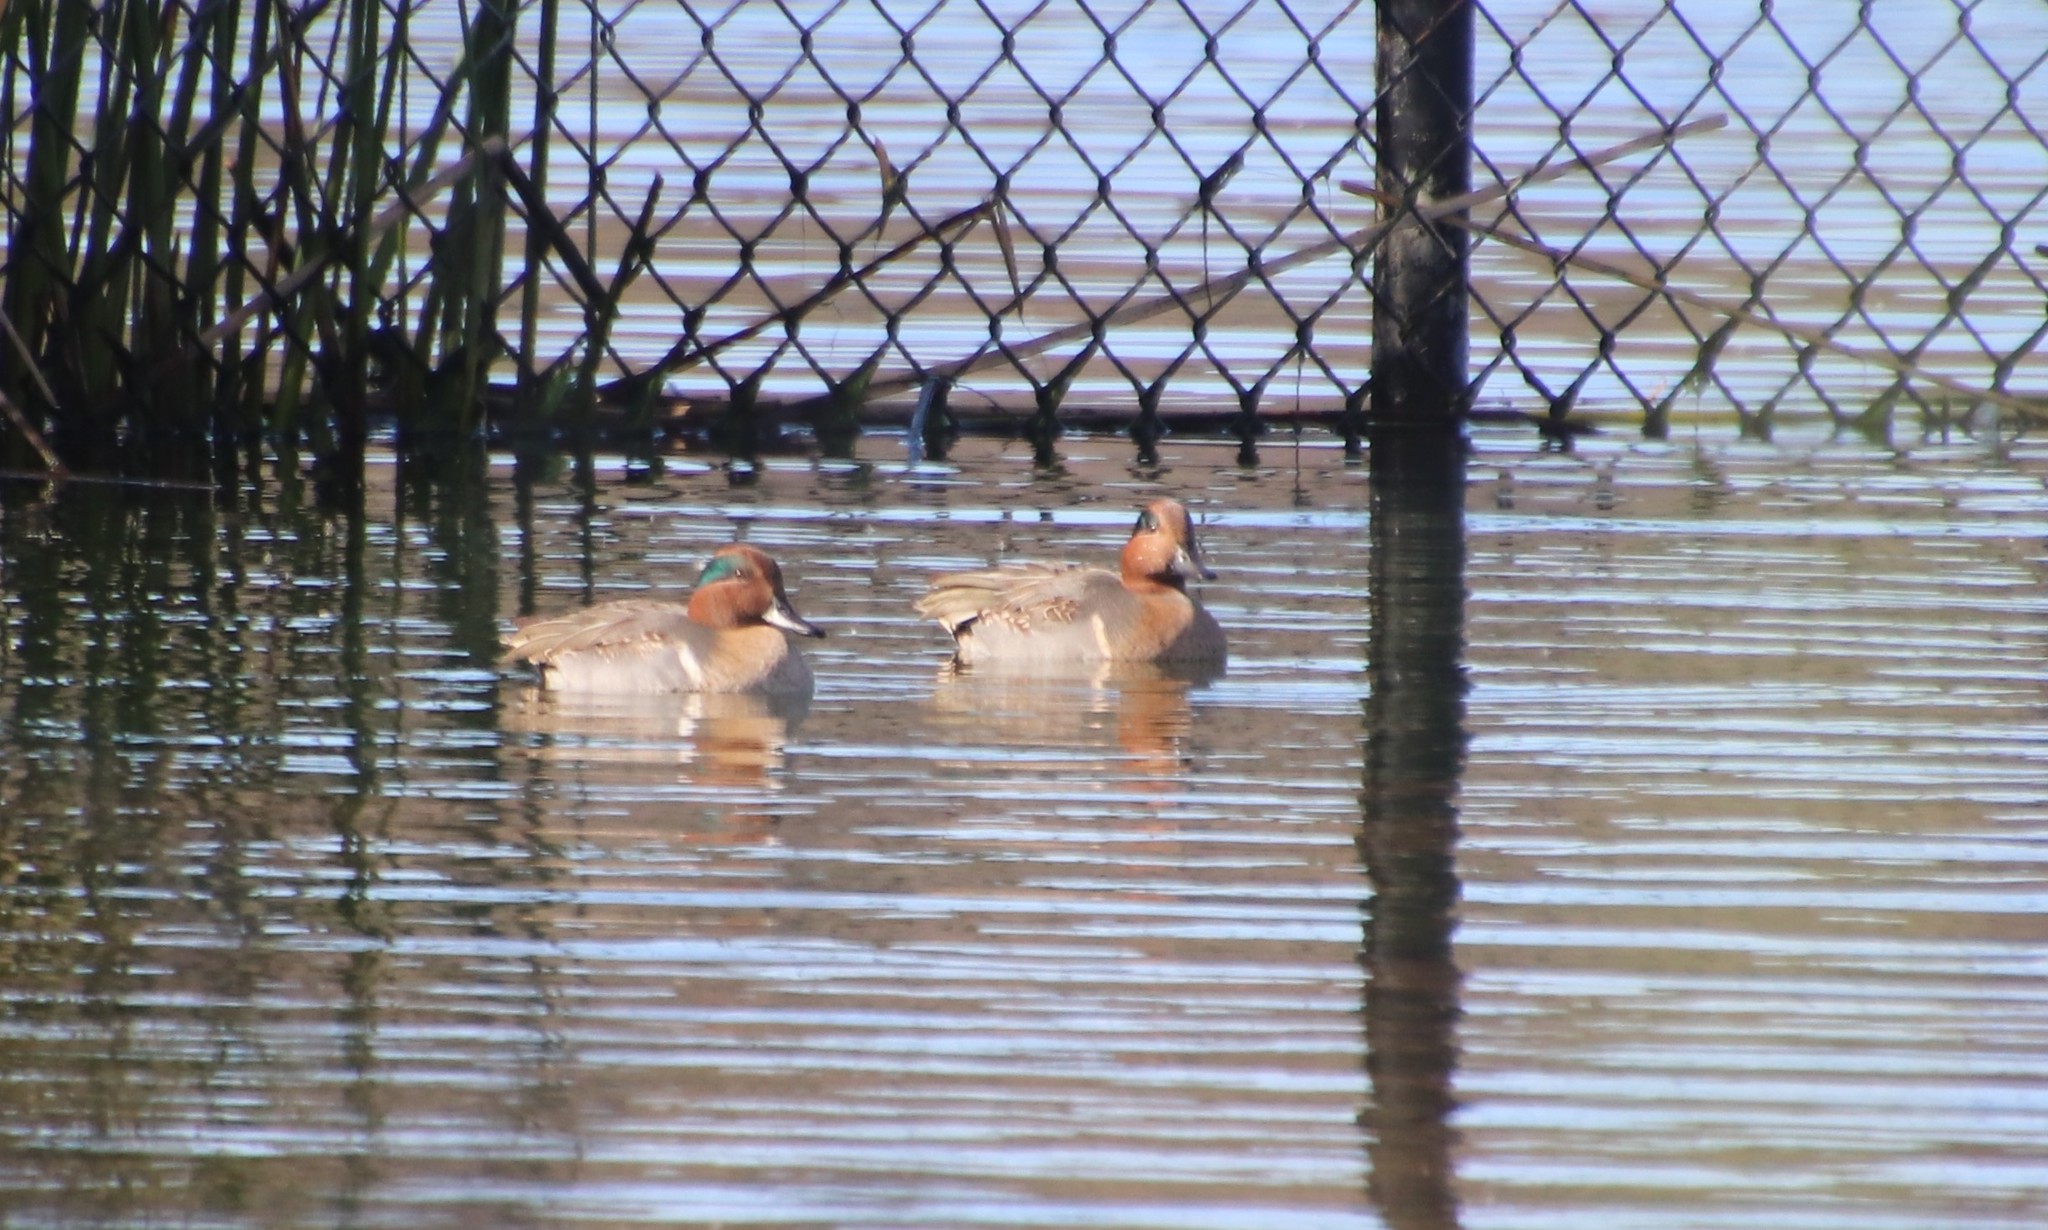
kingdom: Animalia
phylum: Chordata
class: Aves
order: Anseriformes
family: Anatidae
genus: Anas
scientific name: Anas crecca
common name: Eurasian teal
